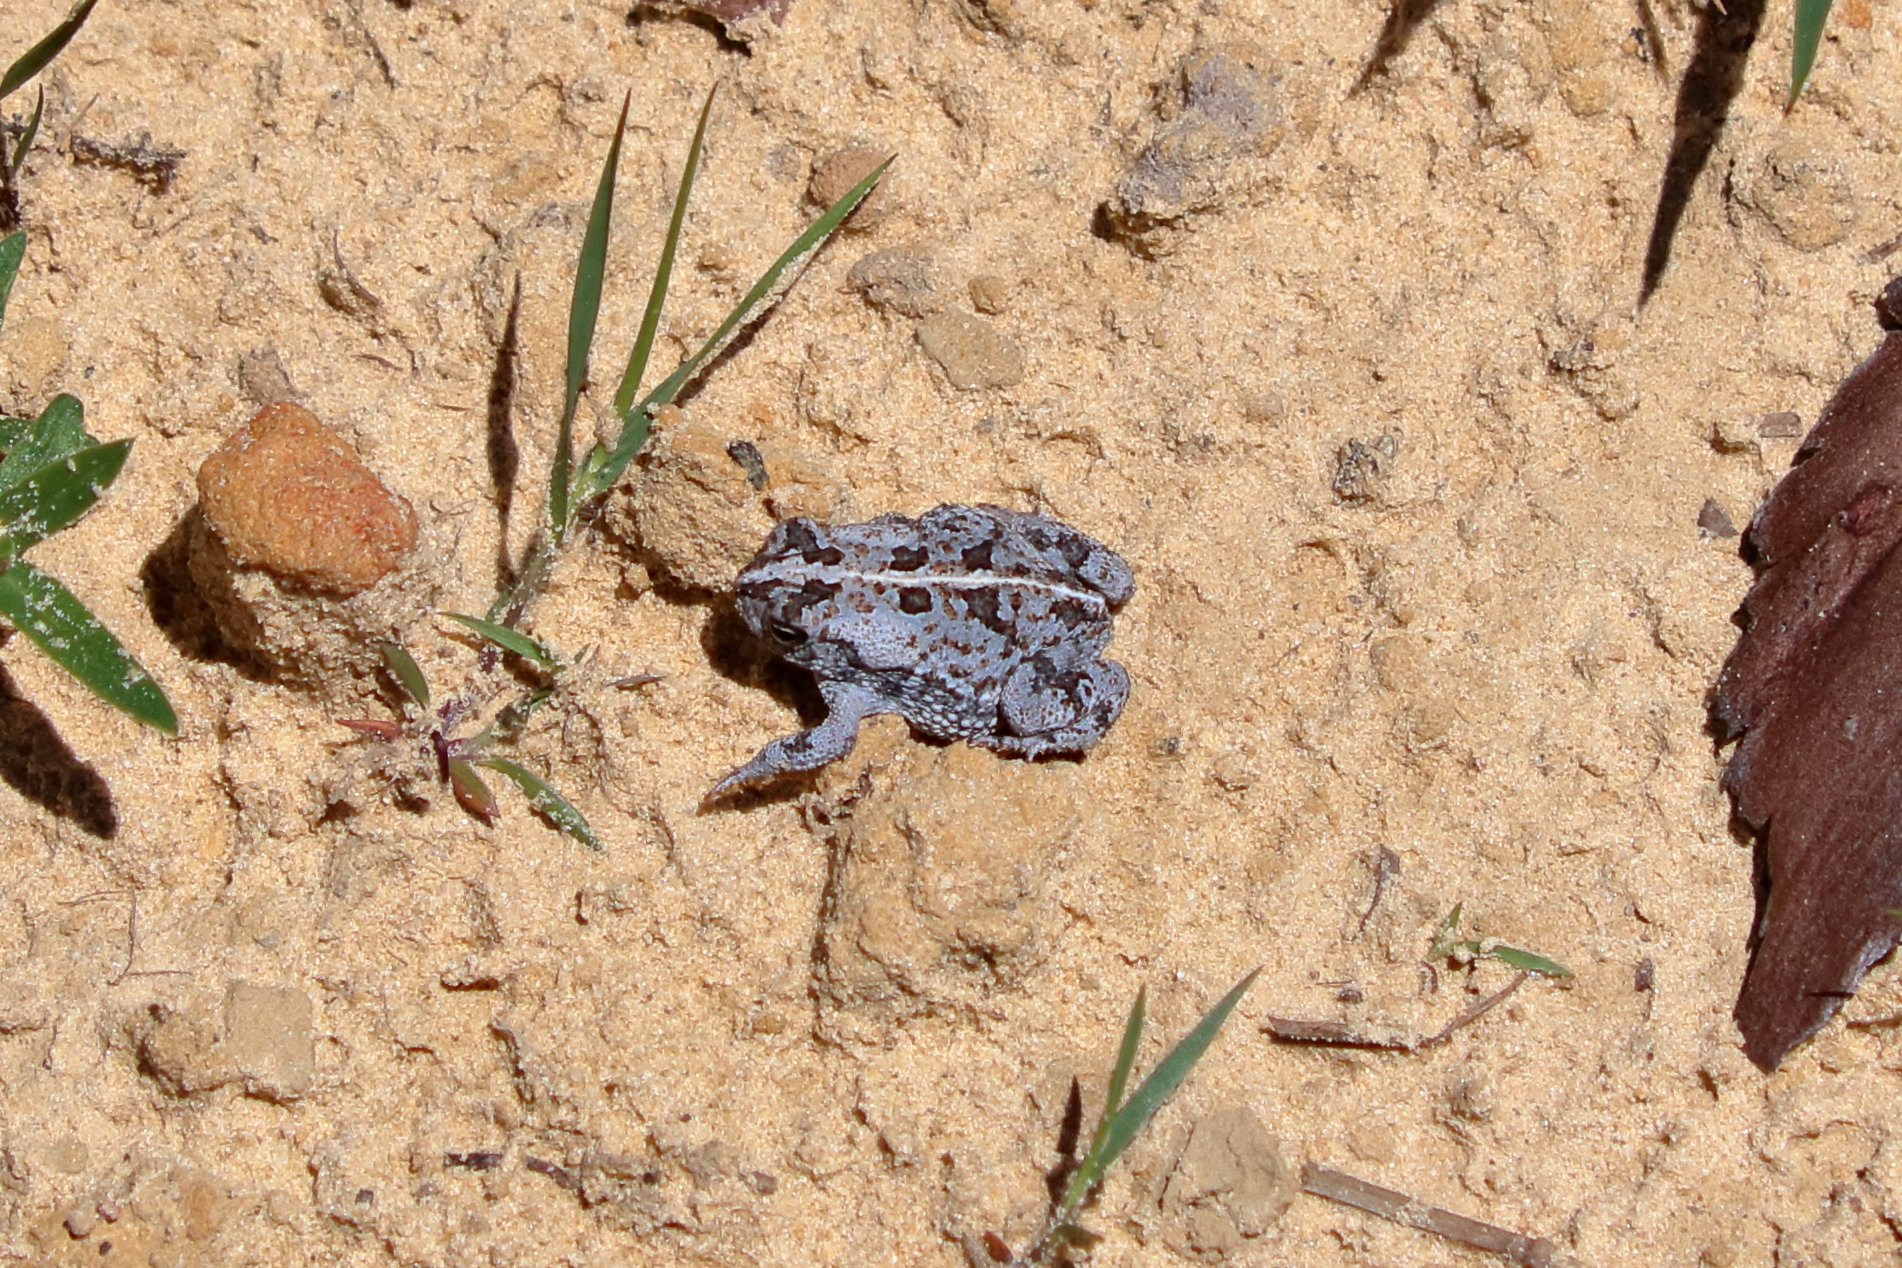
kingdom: Animalia
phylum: Chordata
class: Amphibia
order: Anura
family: Bufonidae
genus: Anaxyrus
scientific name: Anaxyrus quercicus
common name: Oak toad
